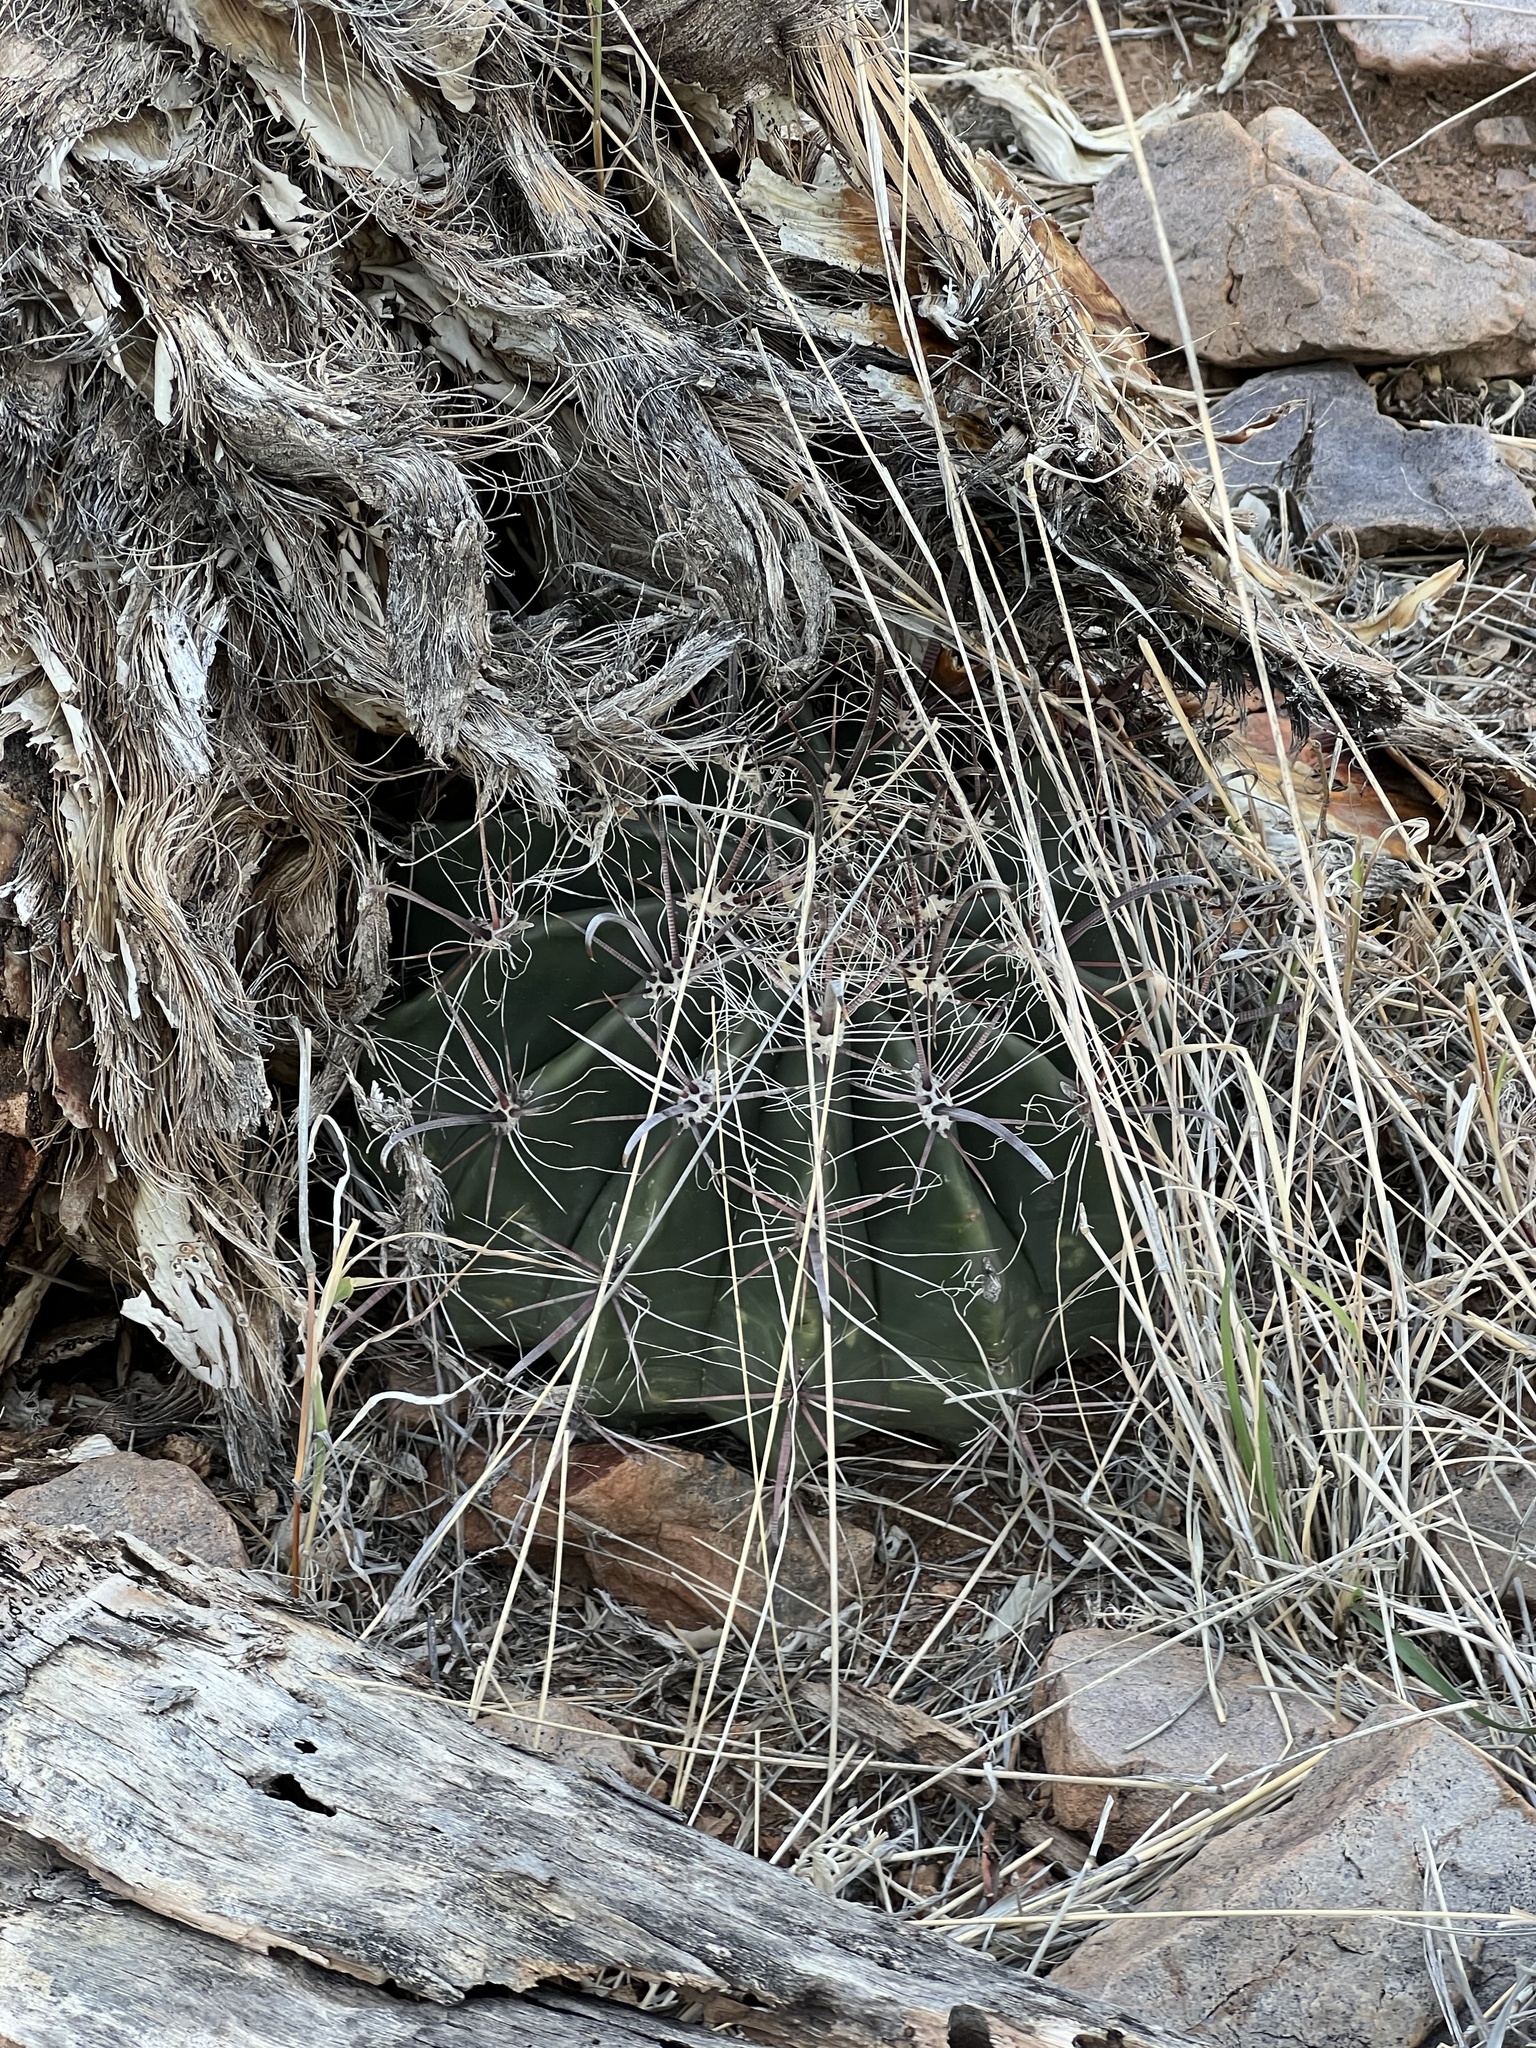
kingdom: Plantae
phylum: Tracheophyta
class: Magnoliopsida
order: Caryophyllales
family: Cactaceae
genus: Ferocactus
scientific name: Ferocactus wislizeni
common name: Candy barrel cactus
